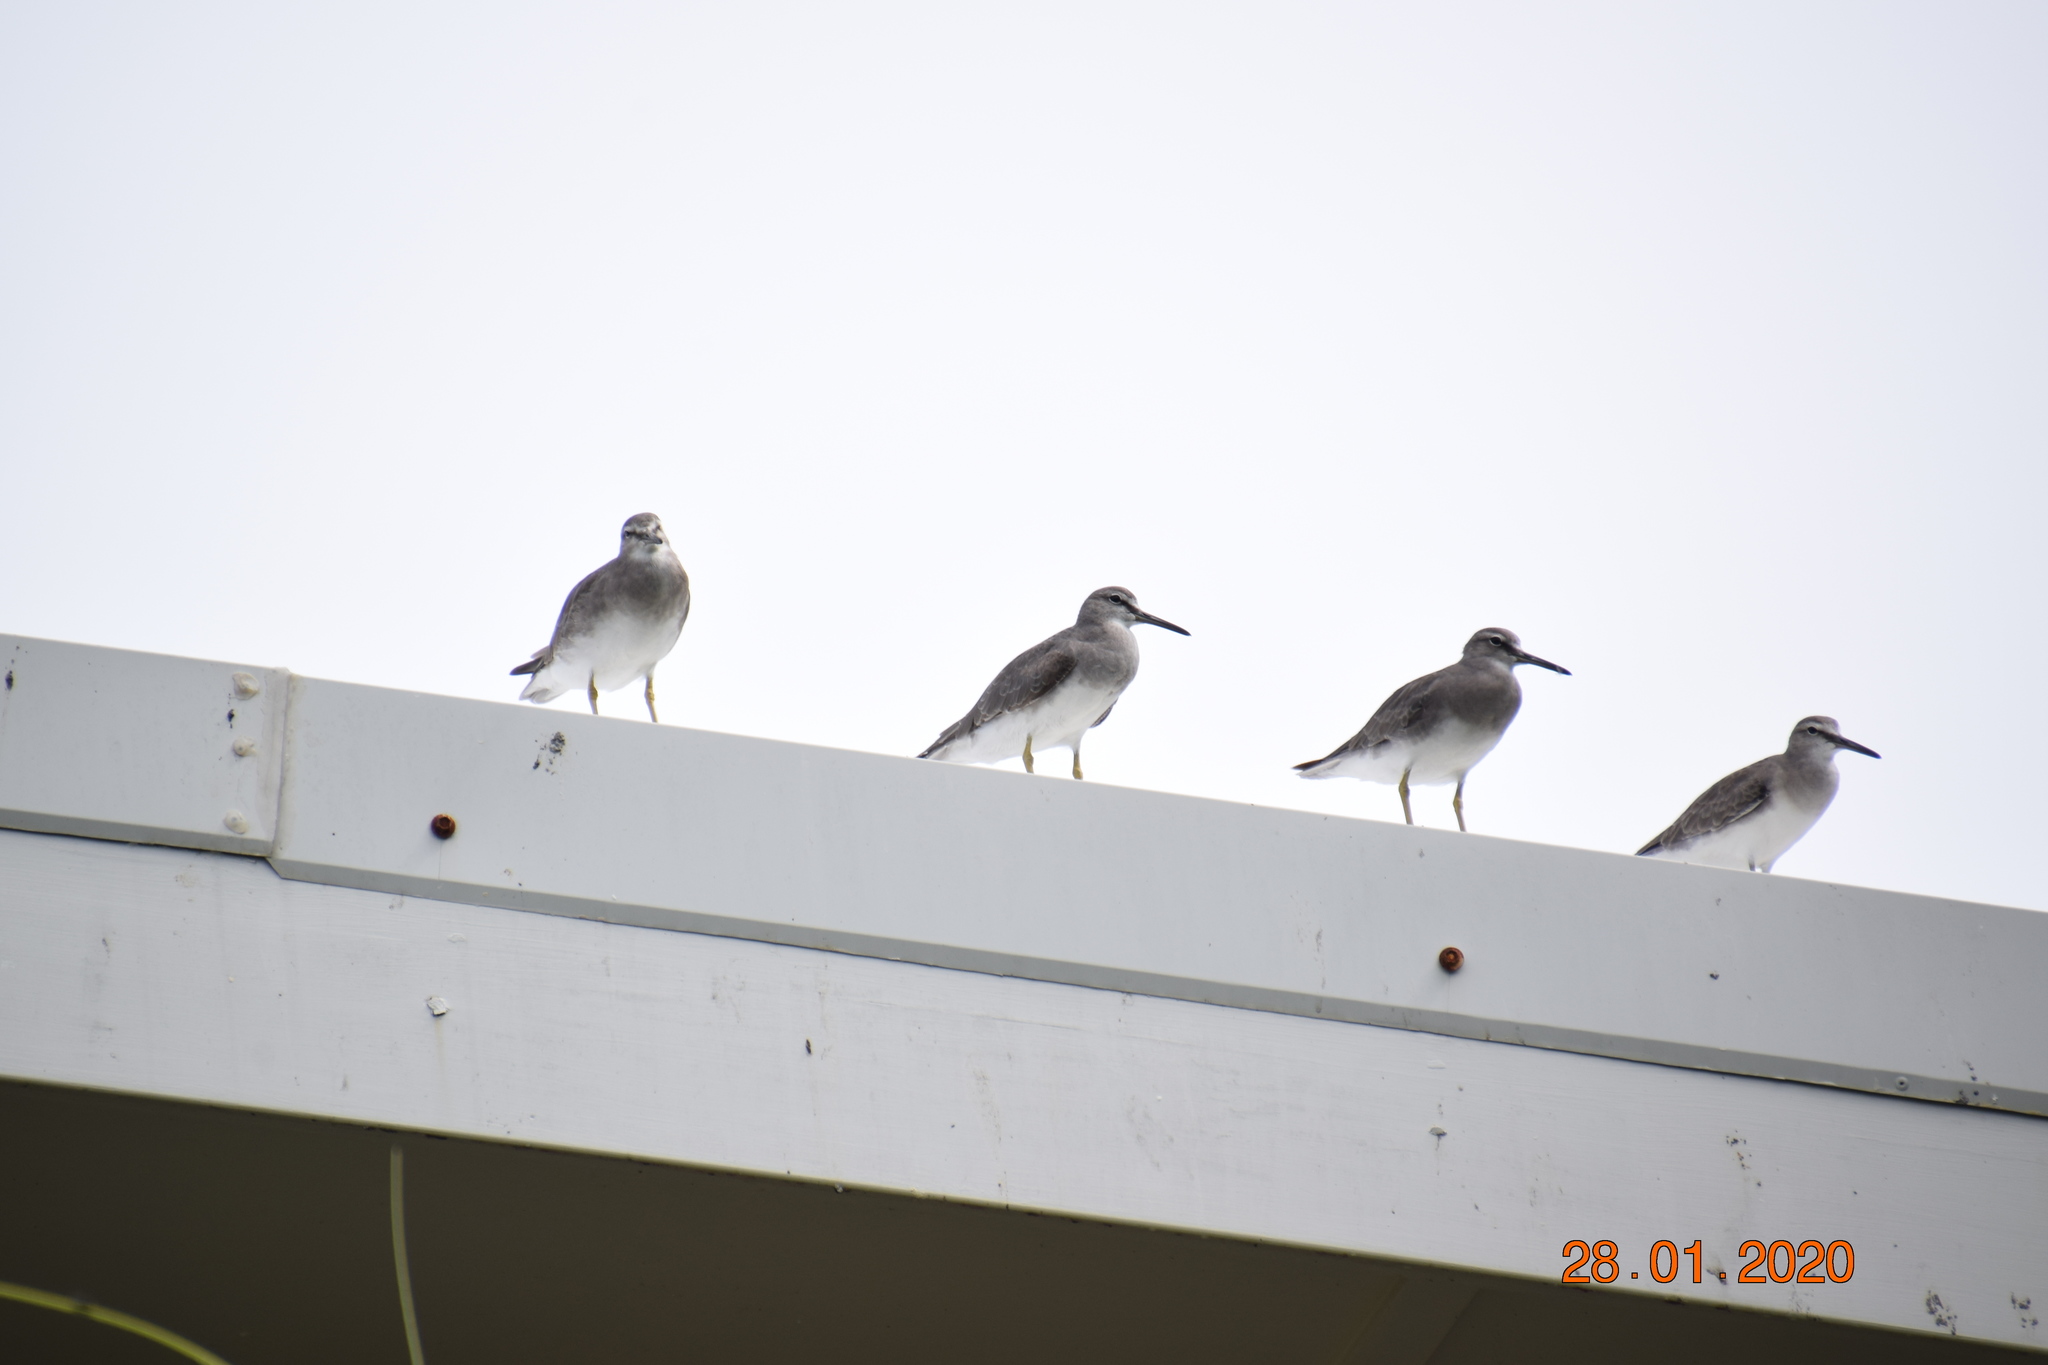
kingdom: Animalia
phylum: Chordata
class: Aves
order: Charadriiformes
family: Scolopacidae
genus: Tringa
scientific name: Tringa brevipes
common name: Grey-tailed tattler
